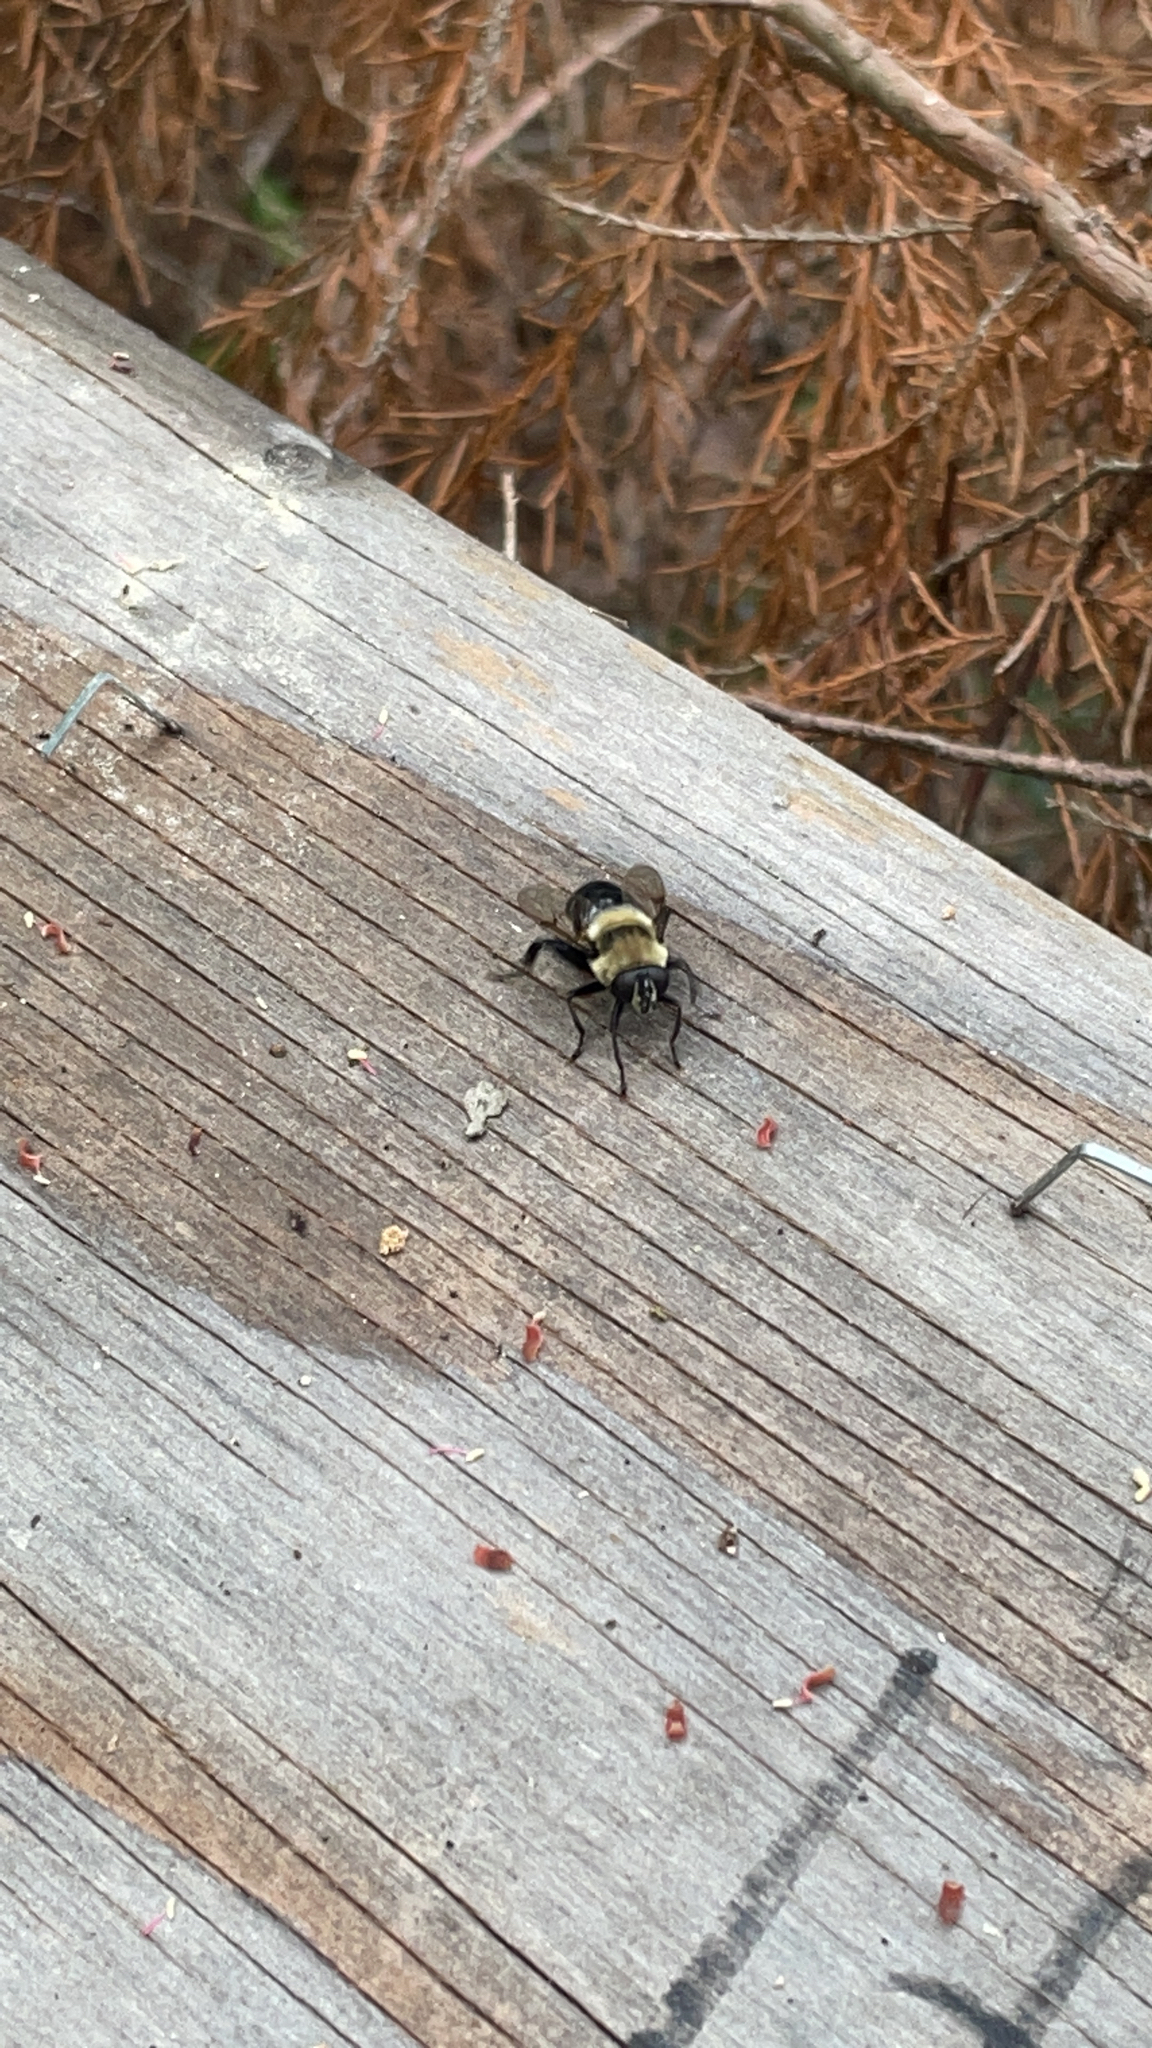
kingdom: Animalia
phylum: Arthropoda
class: Insecta
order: Diptera
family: Syrphidae
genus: Imatisma
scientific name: Imatisma bautias
